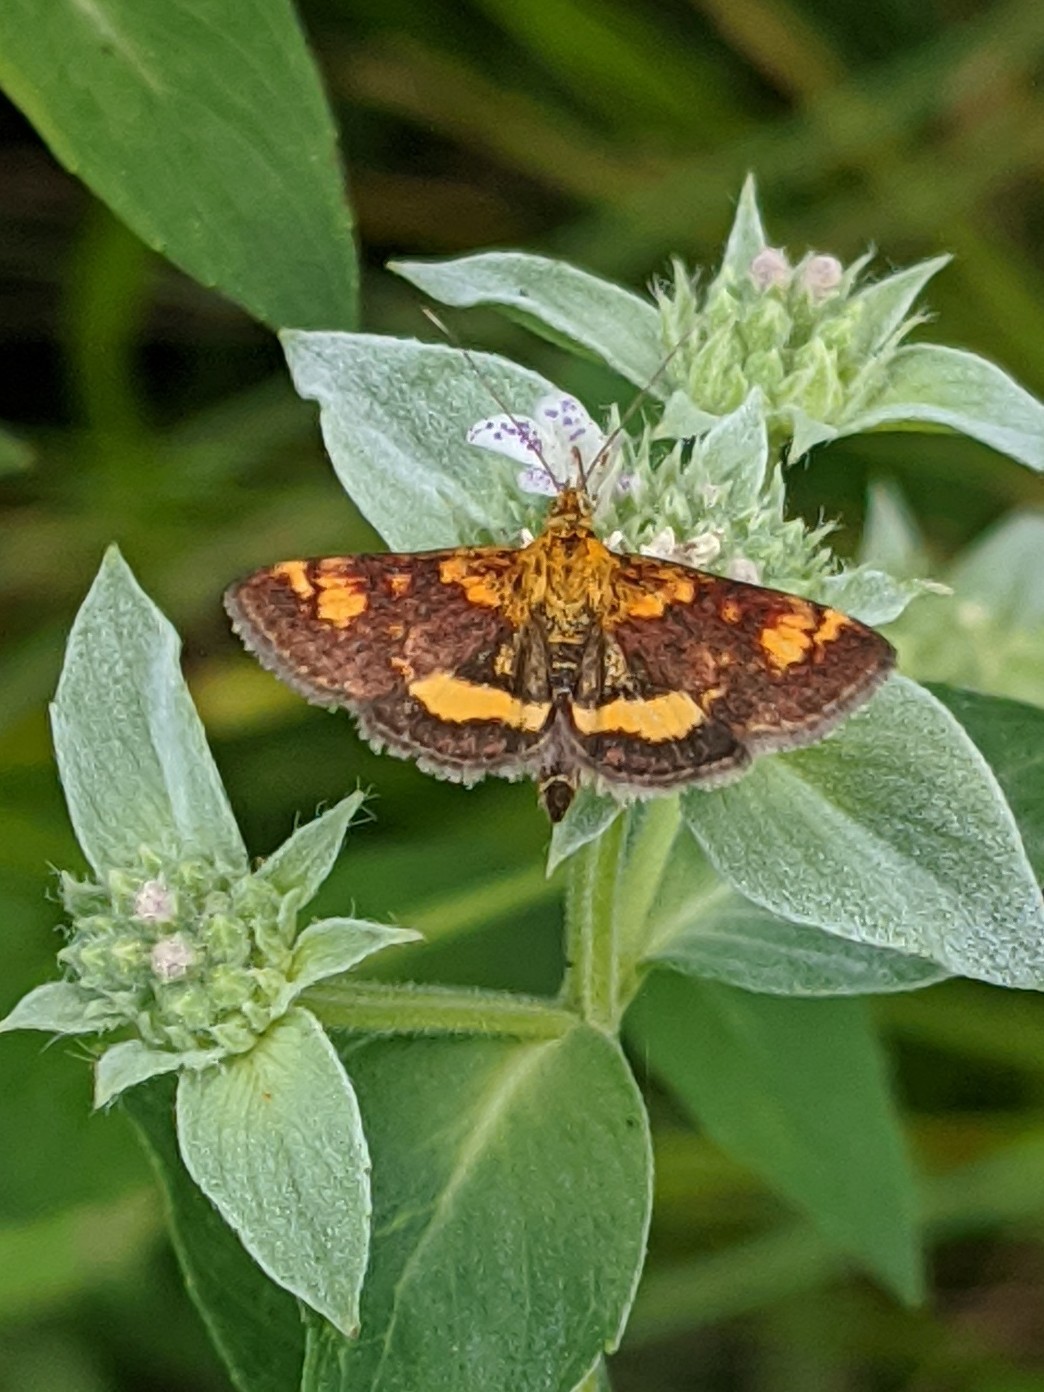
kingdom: Animalia
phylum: Arthropoda
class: Insecta
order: Lepidoptera
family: Crambidae
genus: Pyrausta
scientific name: Pyrausta orphisalis
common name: Orange mint moth
